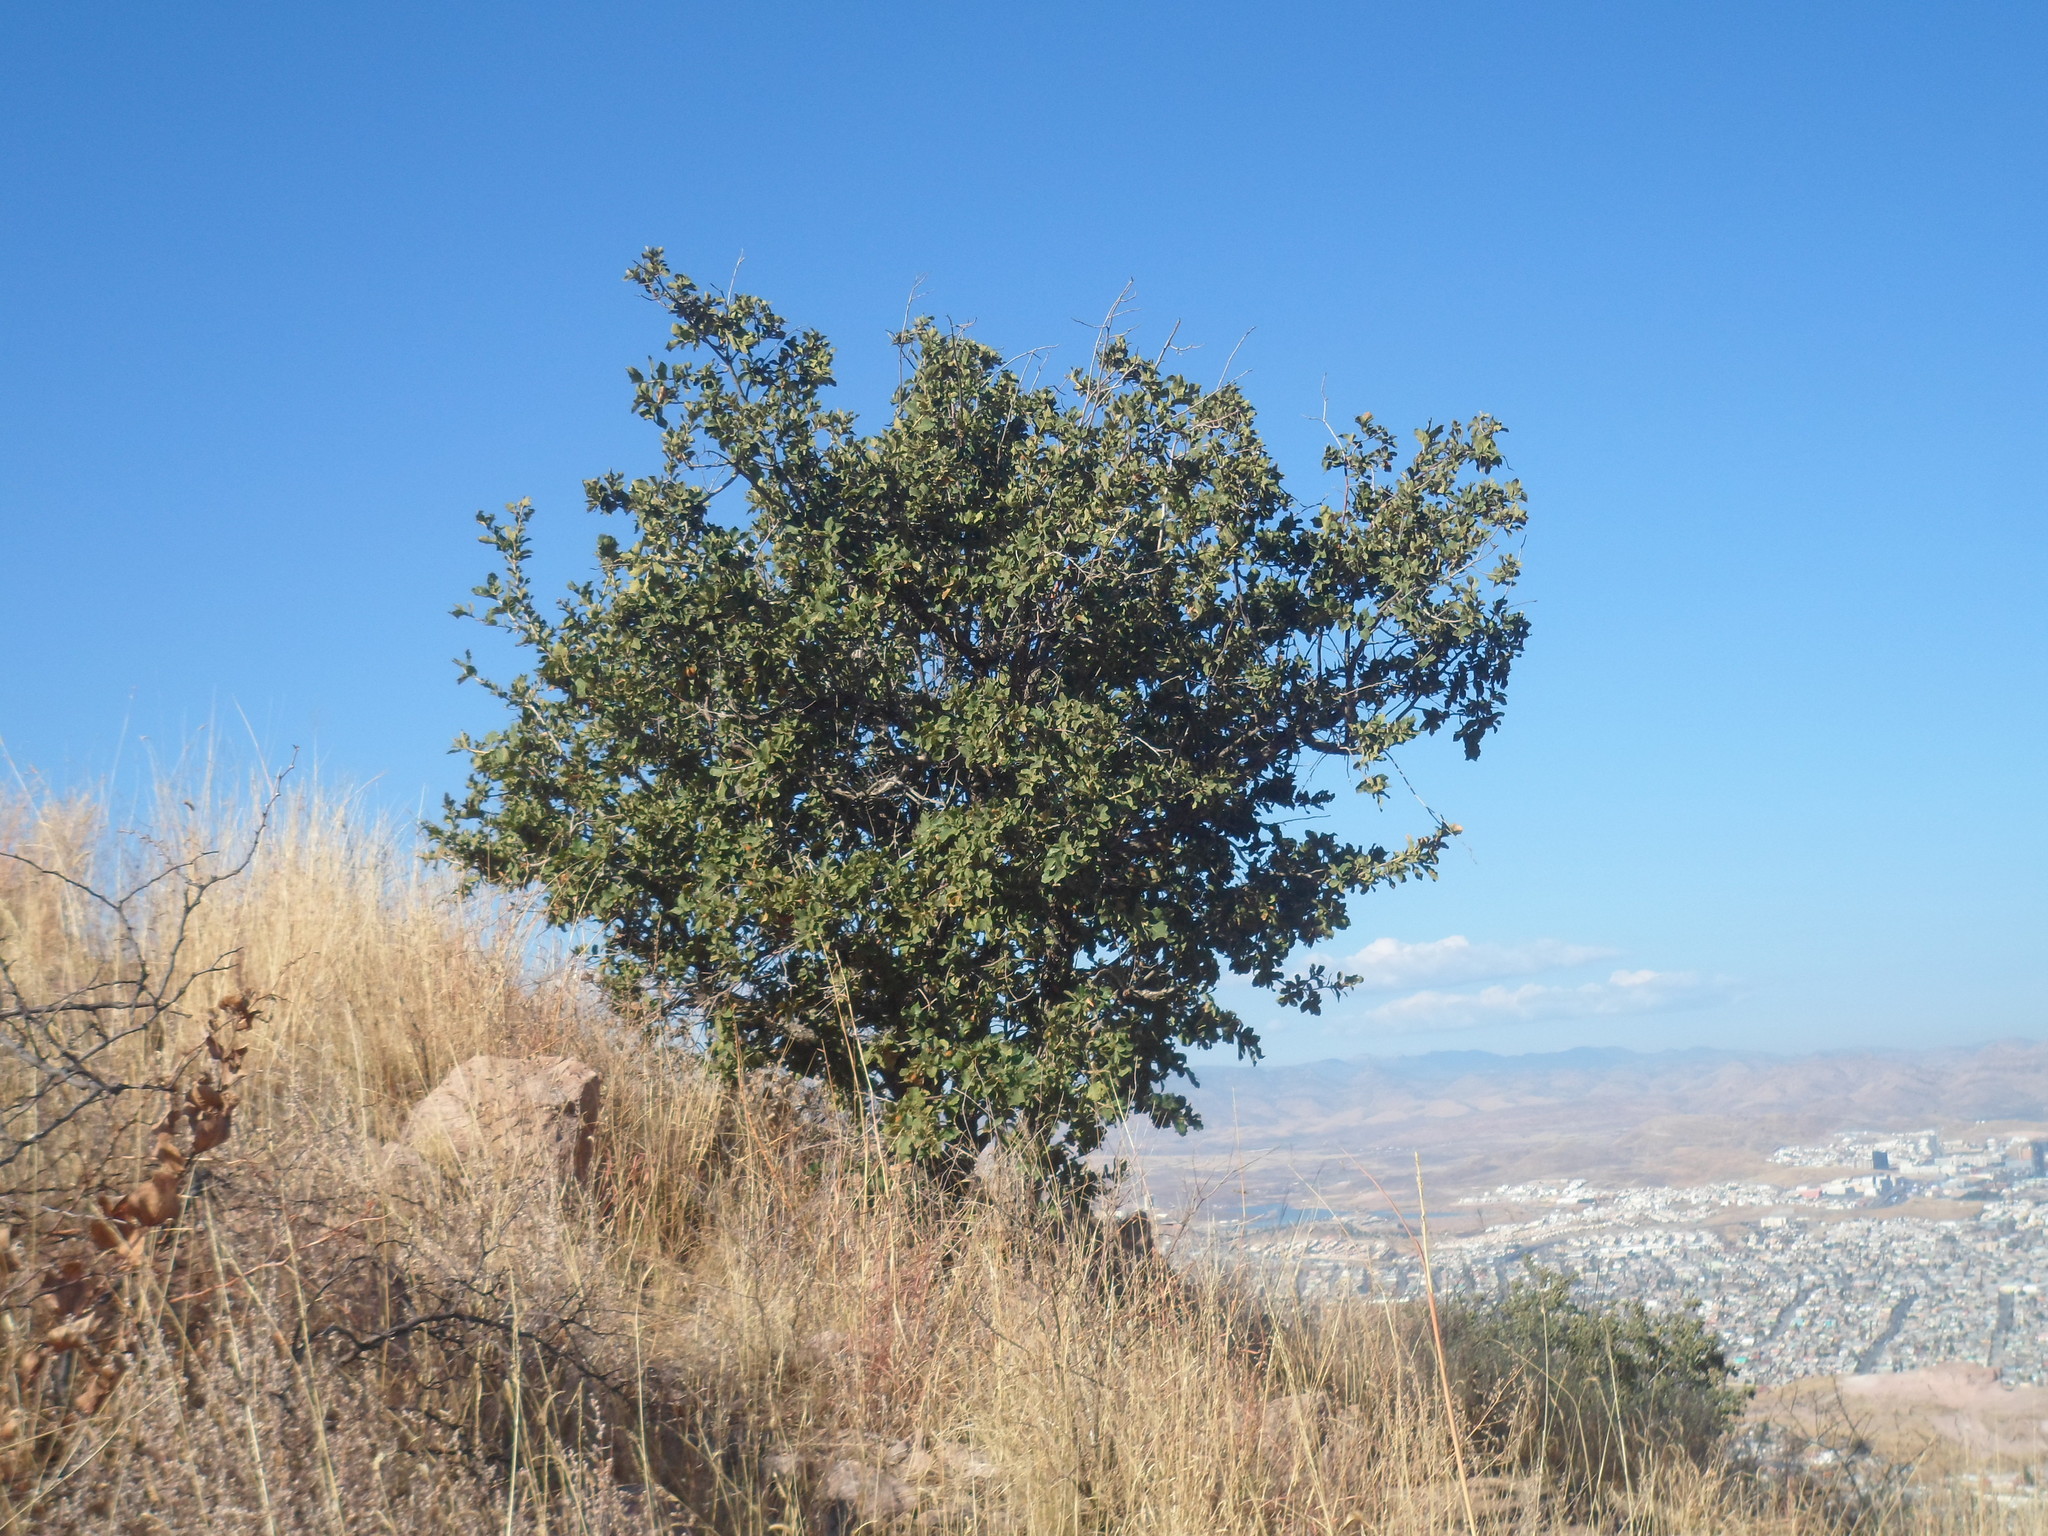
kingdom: Plantae
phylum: Tracheophyta
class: Magnoliopsida
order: Fagales
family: Fagaceae
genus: Quercus
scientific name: Quercus chihuahuensis
